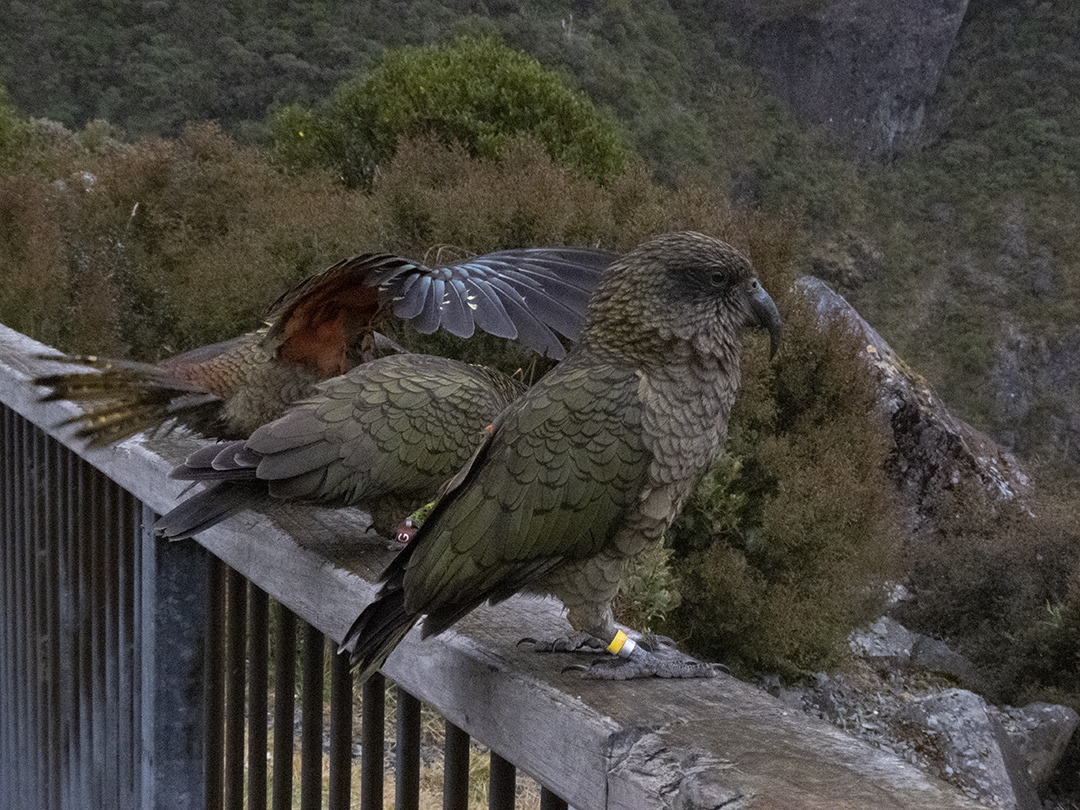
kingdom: Animalia
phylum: Chordata
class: Aves
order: Psittaciformes
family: Psittacidae
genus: Nestor
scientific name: Nestor notabilis
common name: Kea
